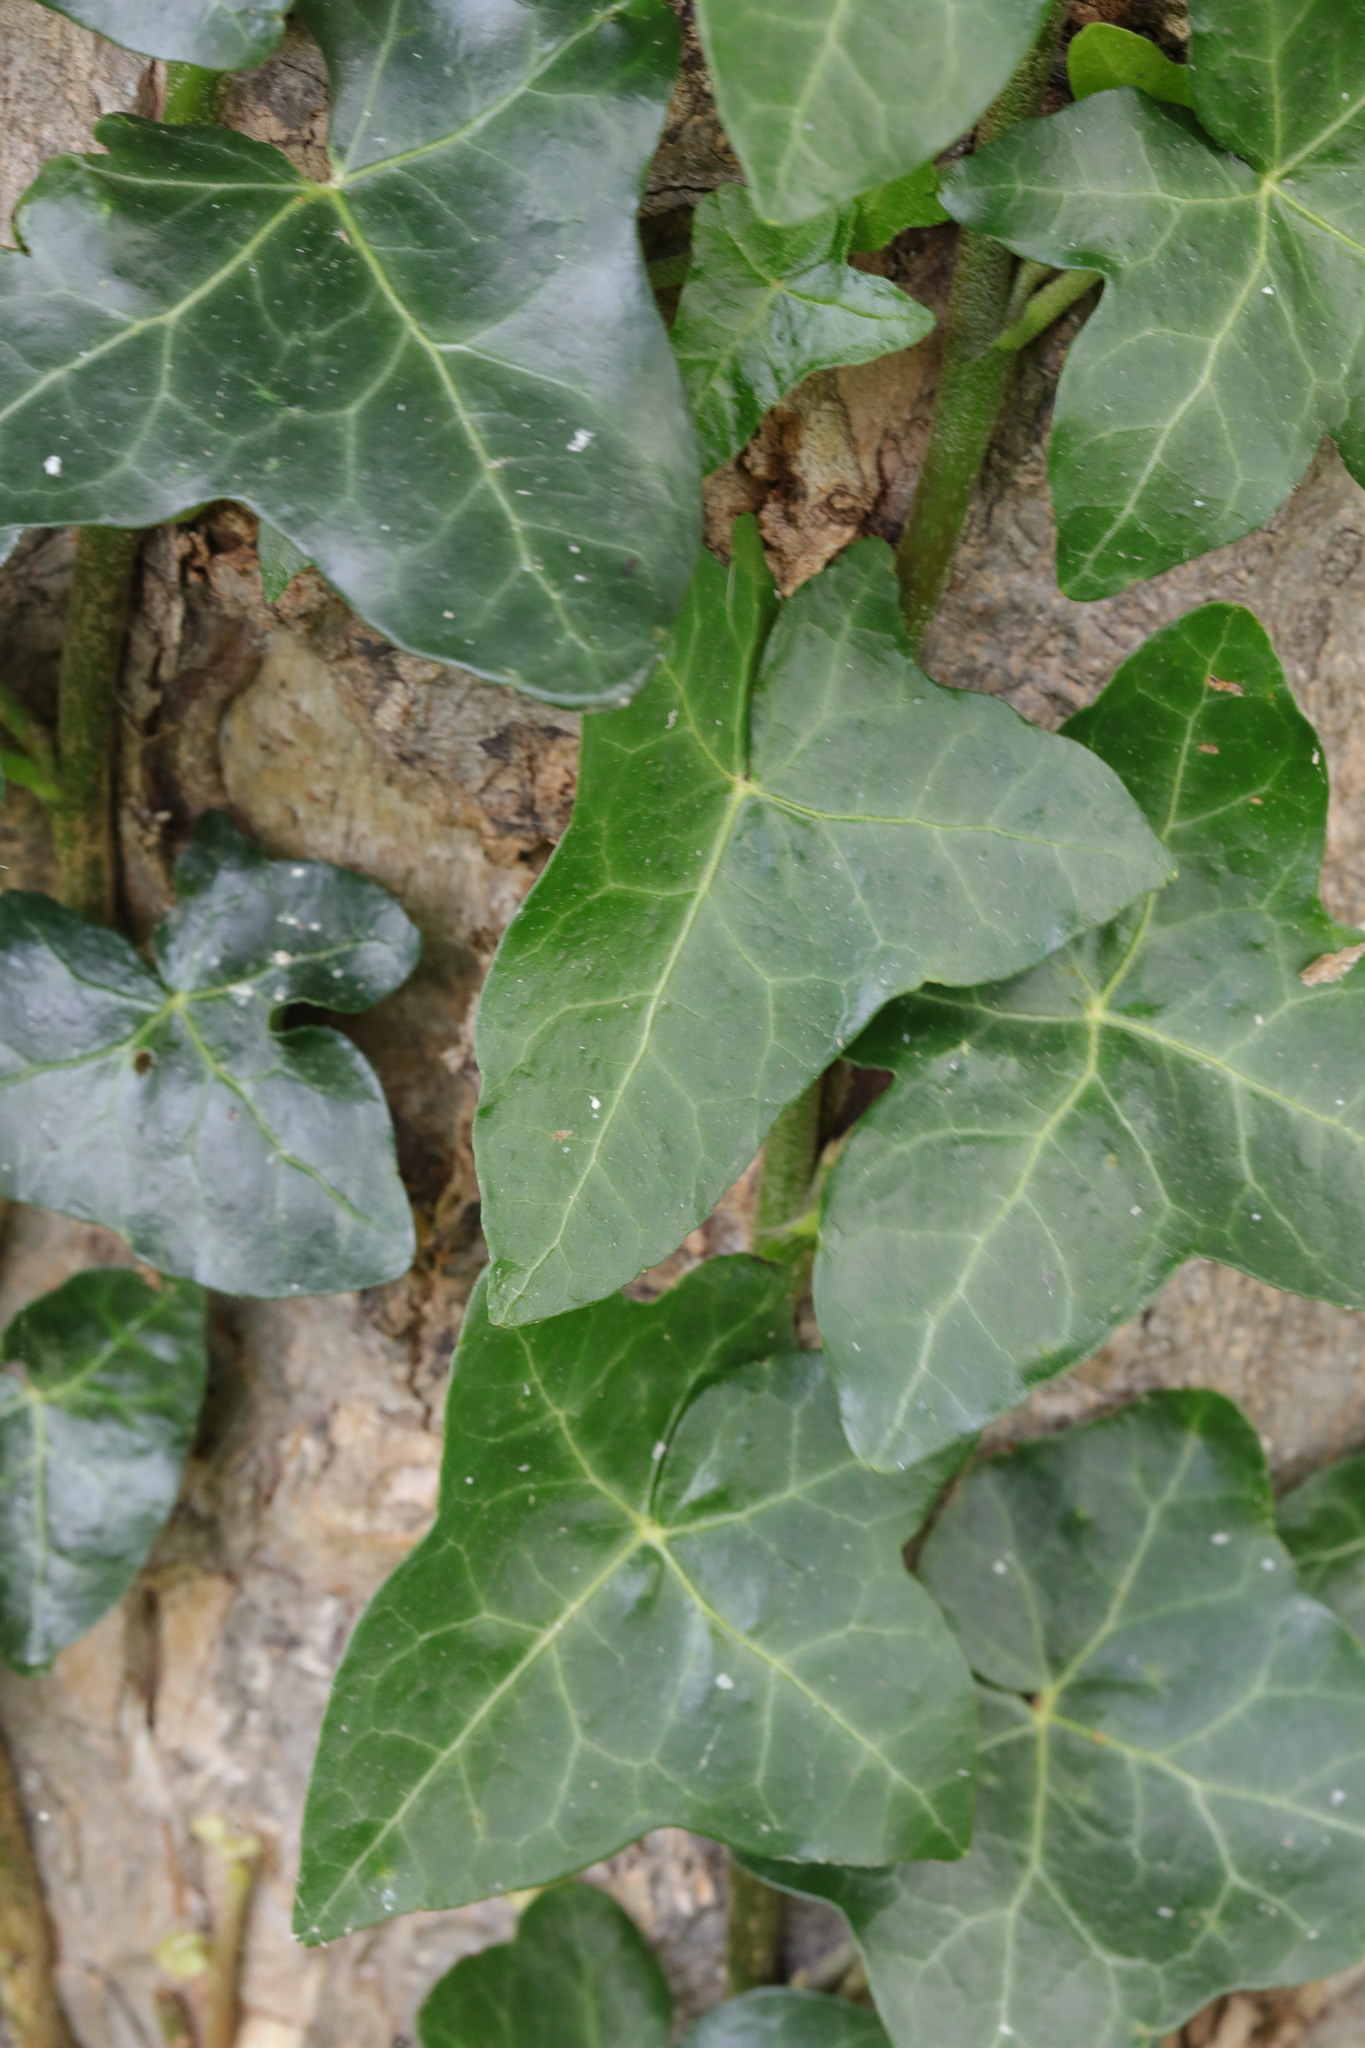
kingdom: Plantae
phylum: Tracheophyta
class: Magnoliopsida
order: Apiales
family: Araliaceae
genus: Hedera
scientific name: Hedera helix
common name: Ivy
